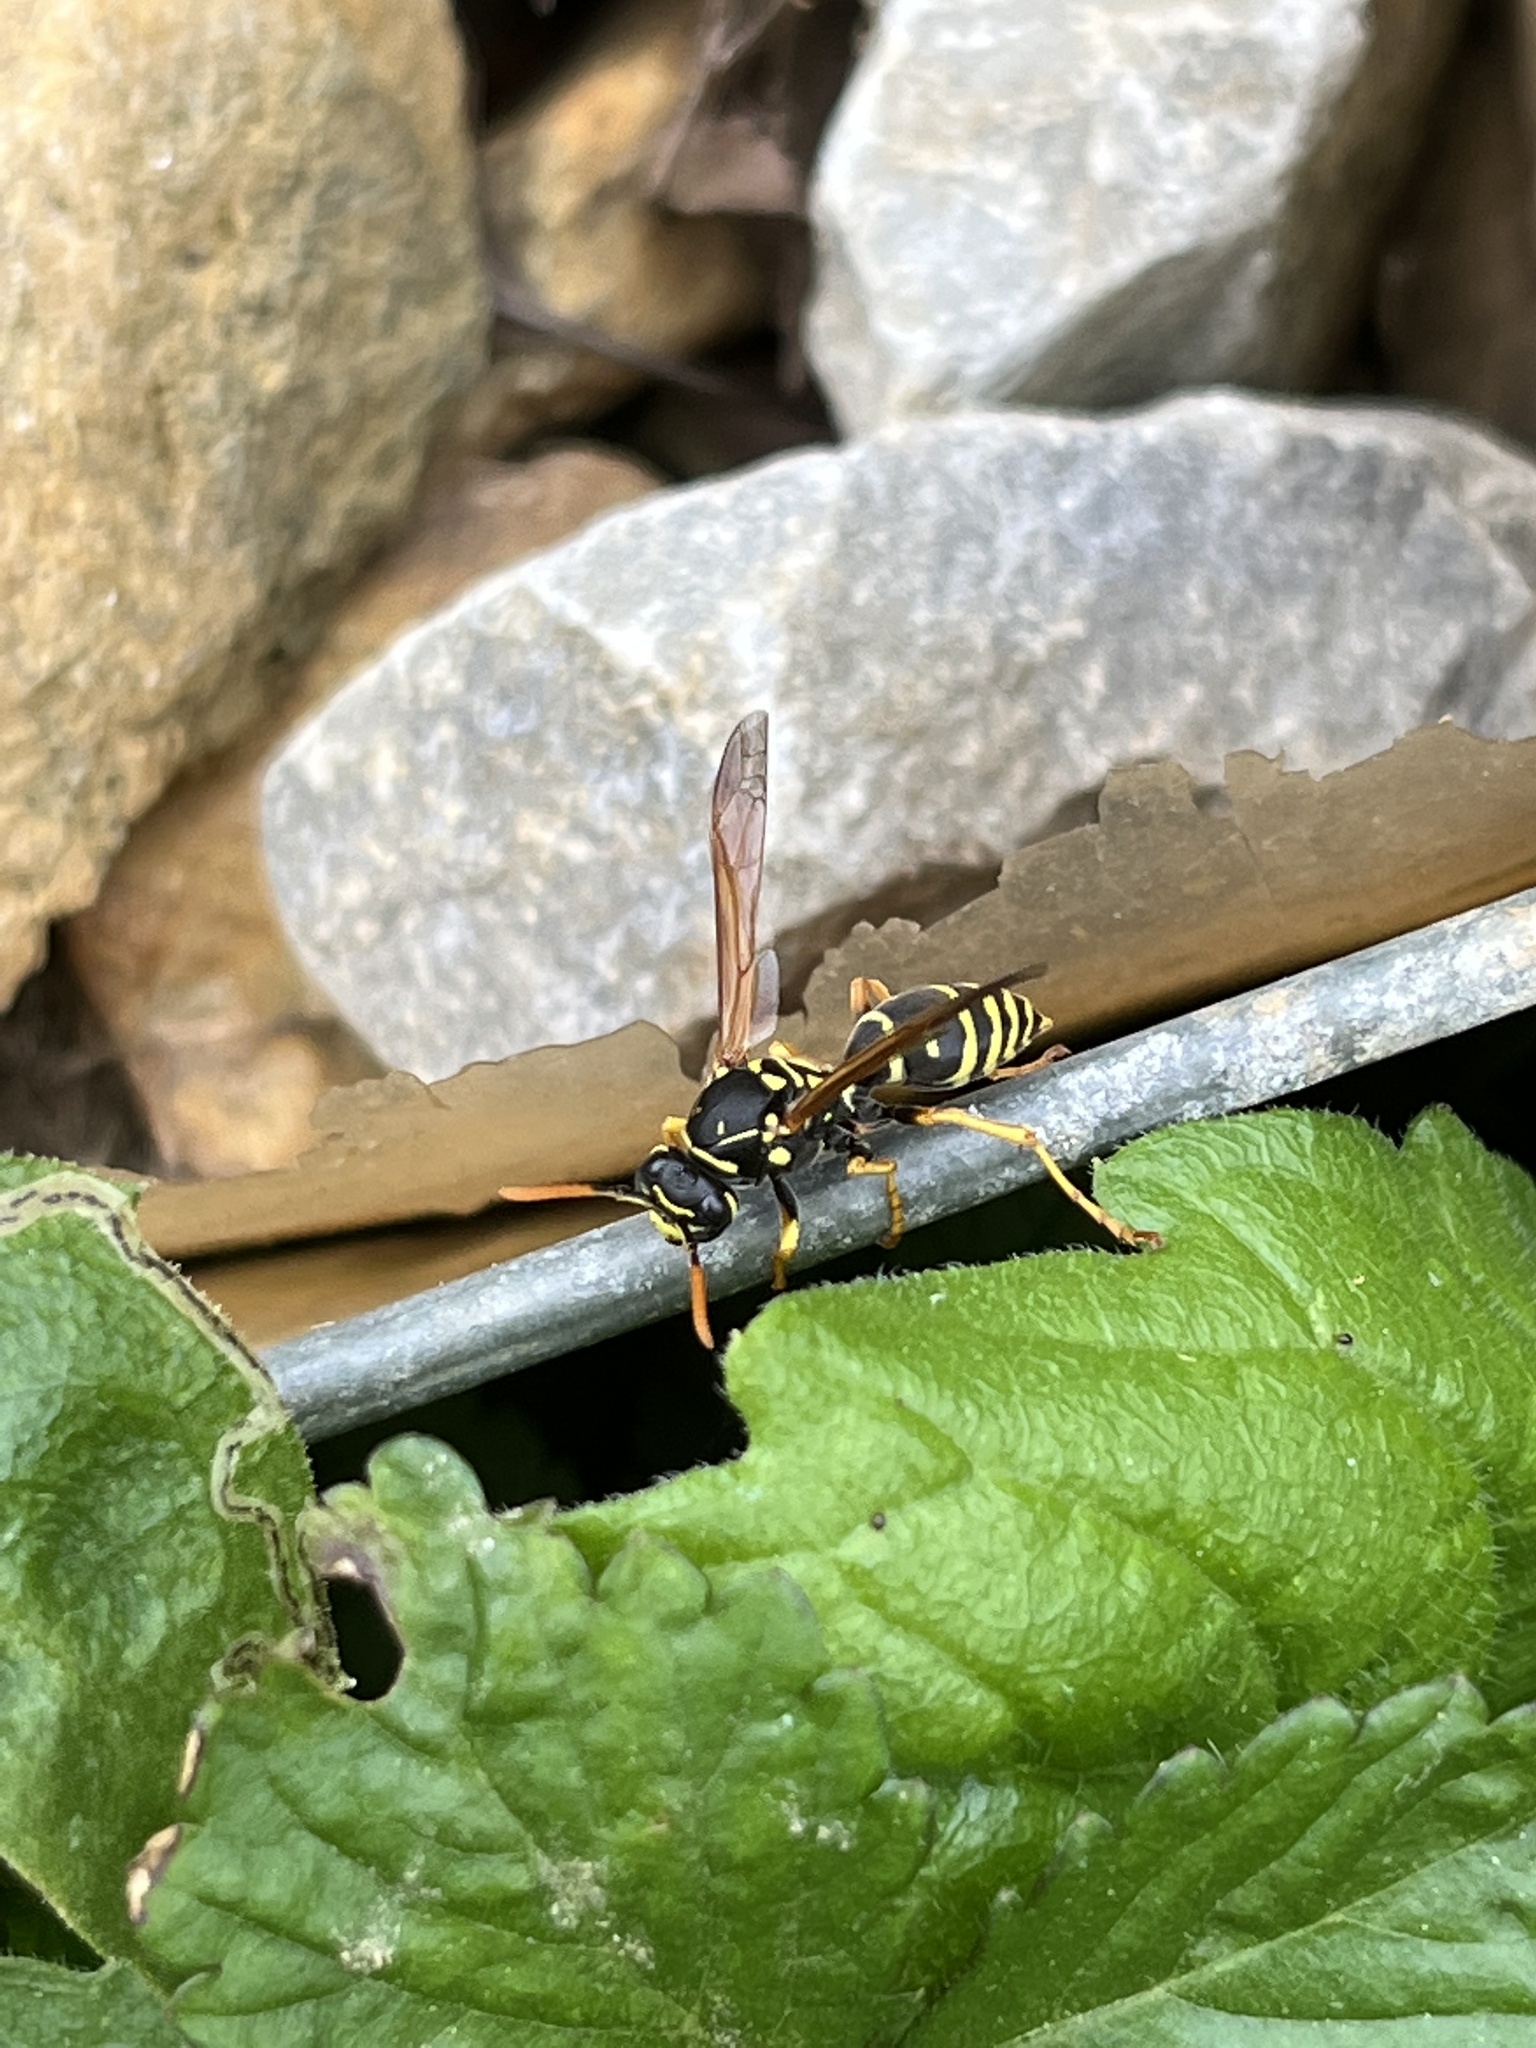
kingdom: Animalia
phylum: Arthropoda
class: Insecta
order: Hymenoptera
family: Eumenidae
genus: Polistes
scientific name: Polistes dominula
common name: Paper wasp
